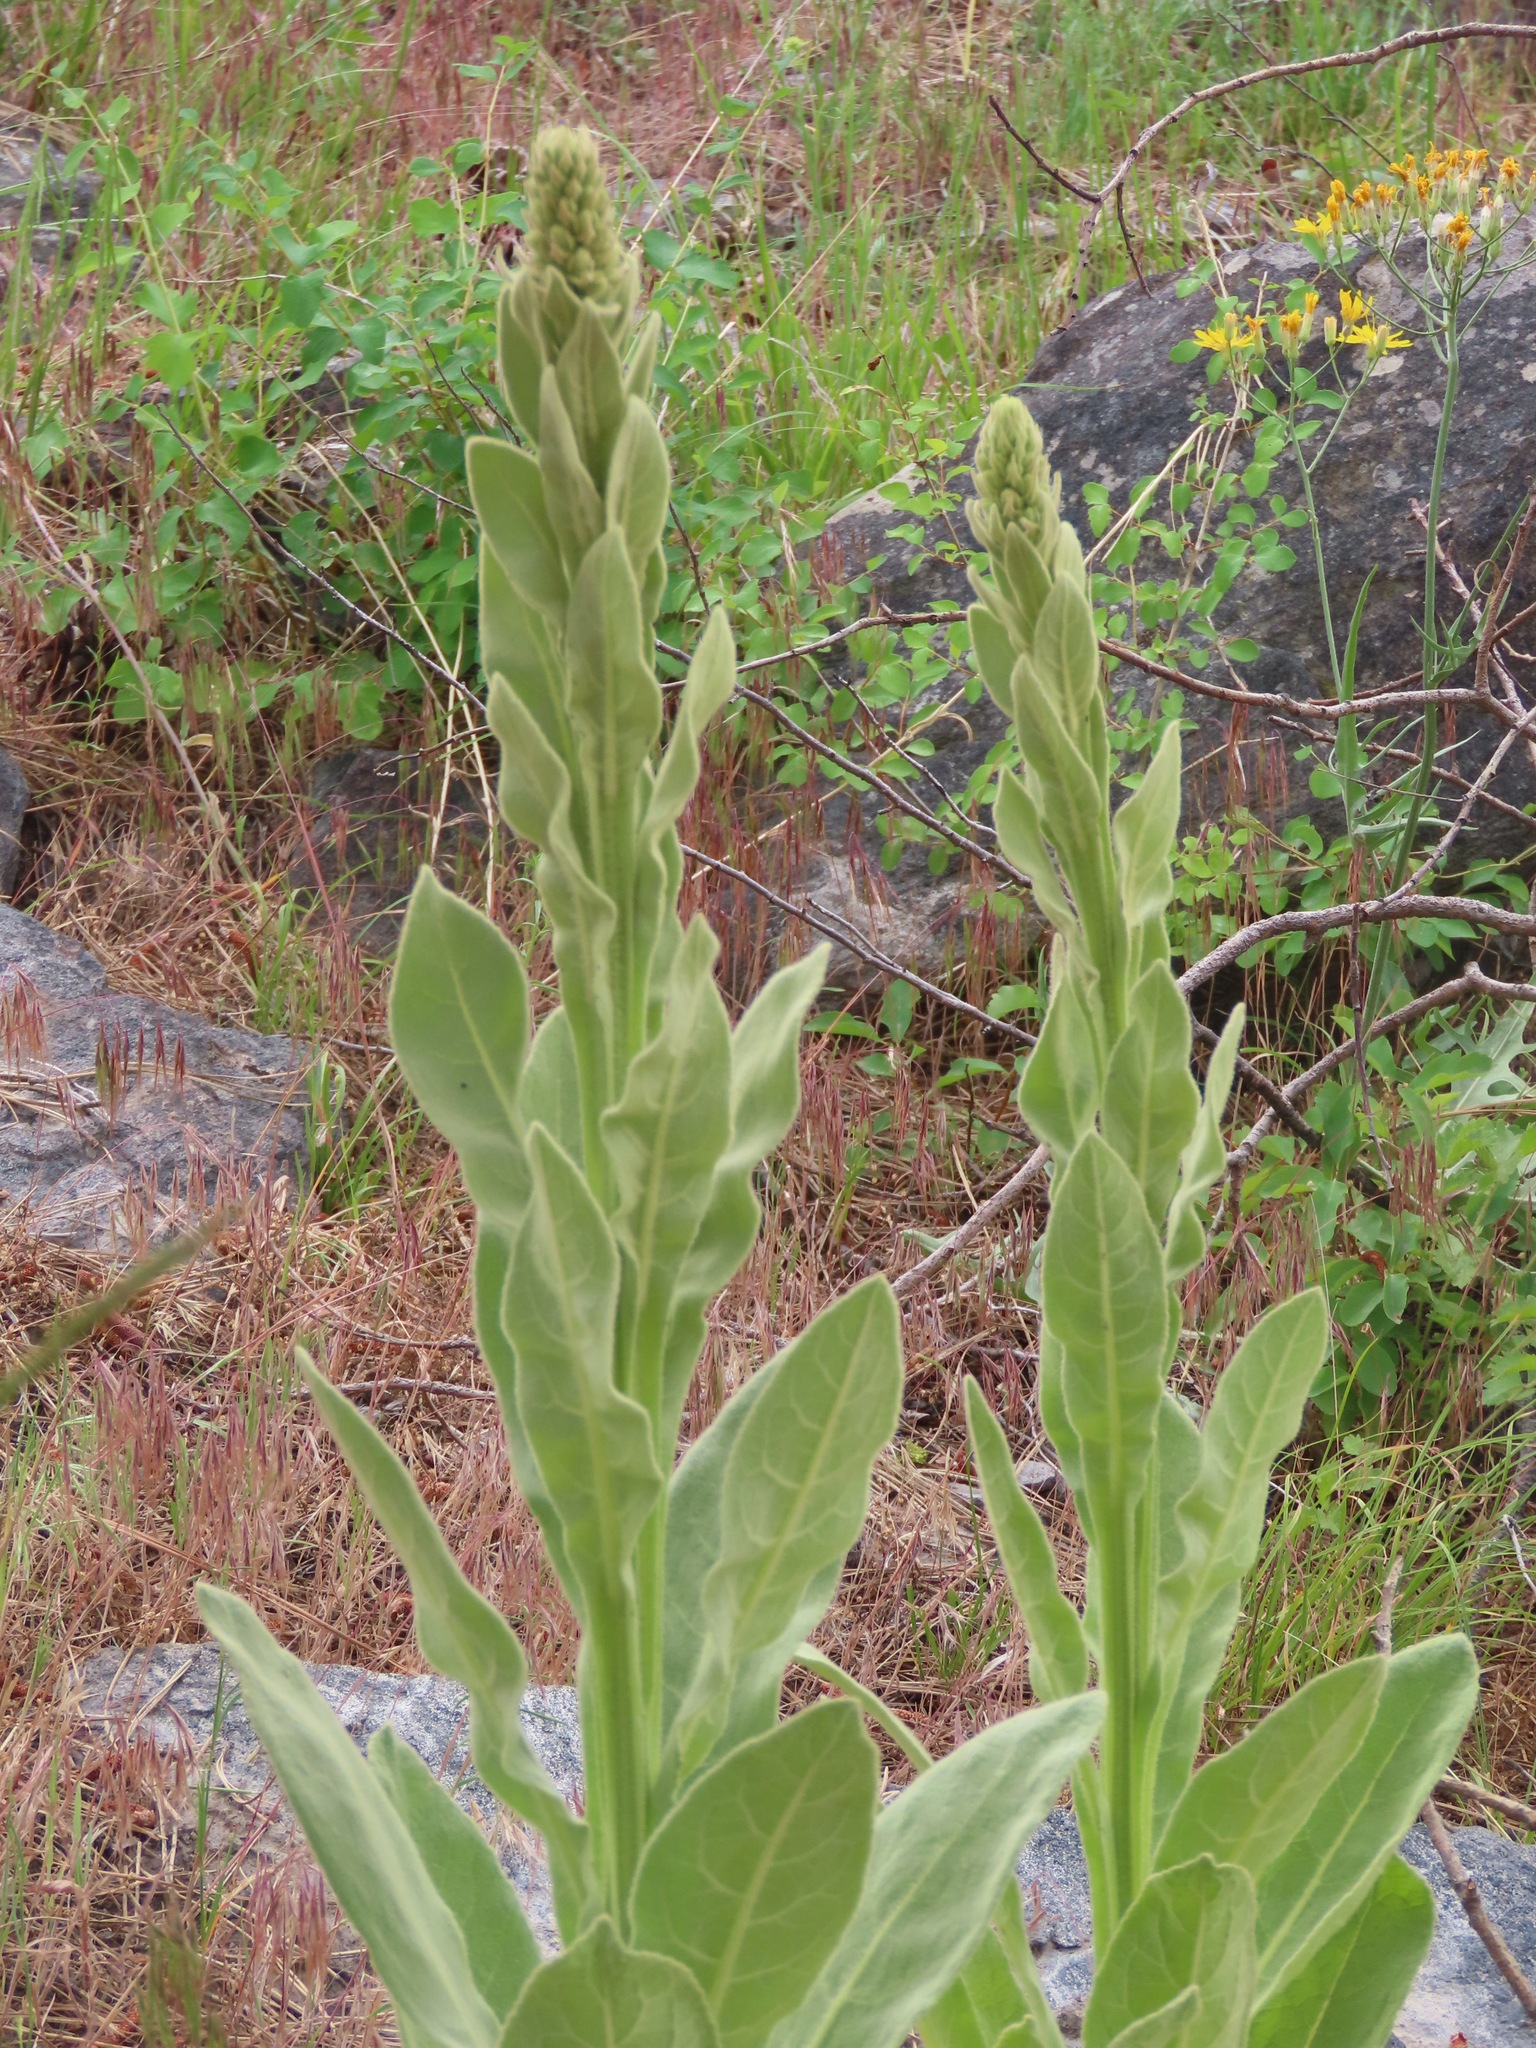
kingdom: Plantae
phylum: Tracheophyta
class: Magnoliopsida
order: Lamiales
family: Scrophulariaceae
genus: Verbascum
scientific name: Verbascum thapsus
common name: Common mullein
